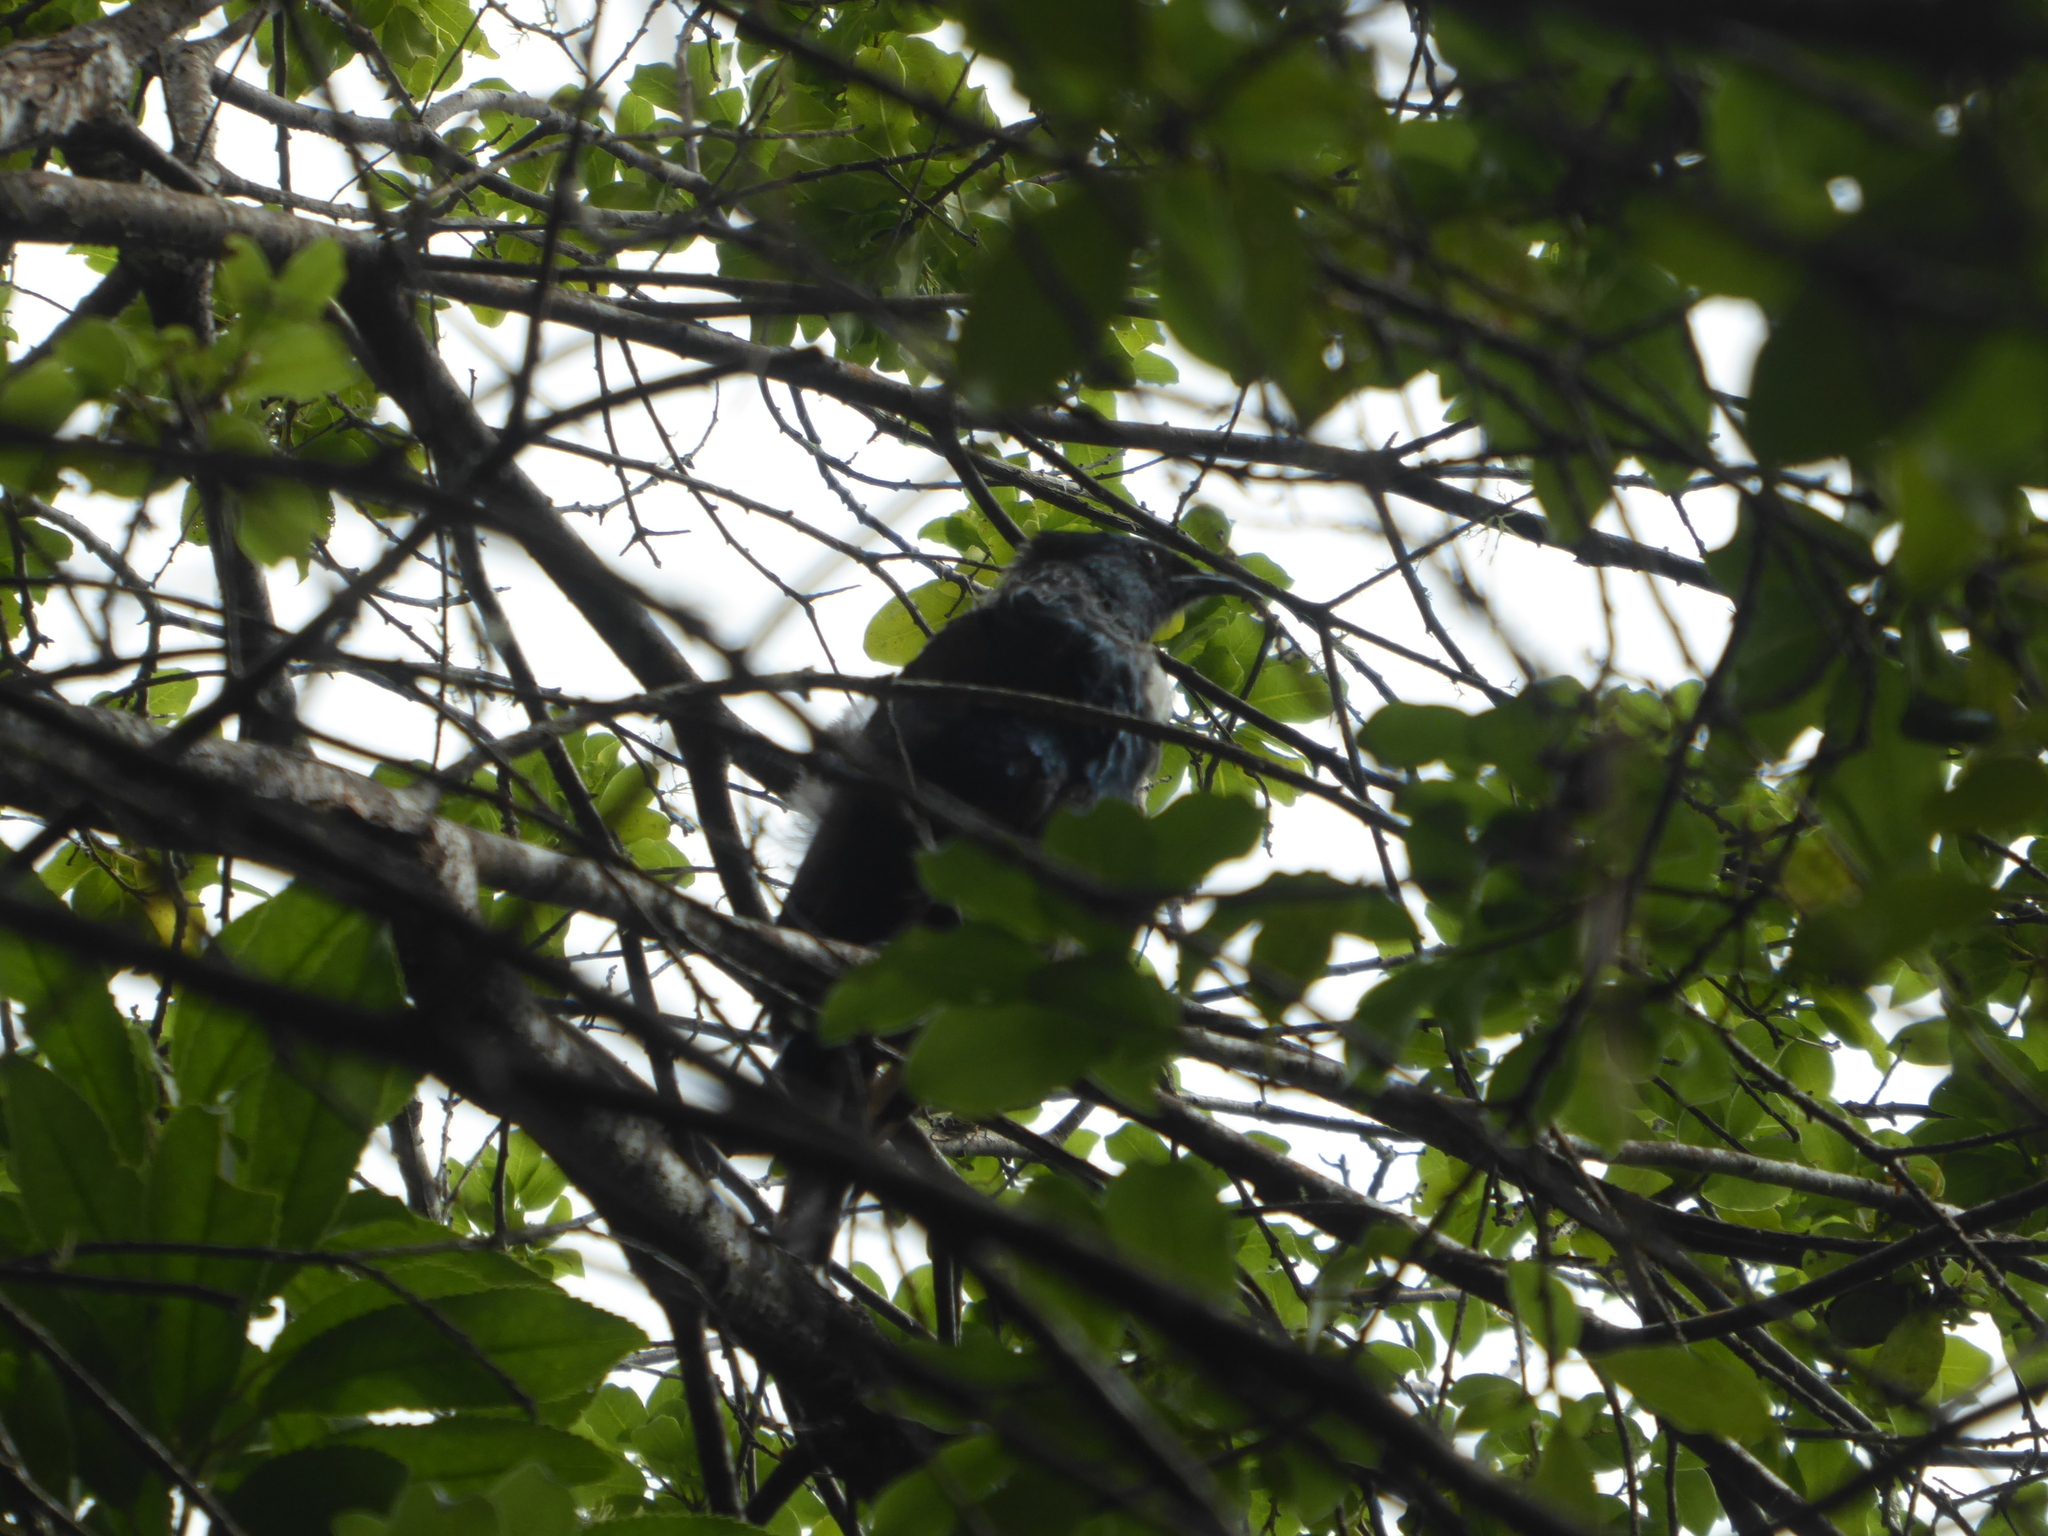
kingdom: Animalia
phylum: Chordata
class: Aves
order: Passeriformes
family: Meliphagidae
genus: Prosthemadera
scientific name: Prosthemadera novaeseelandiae
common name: Tui
